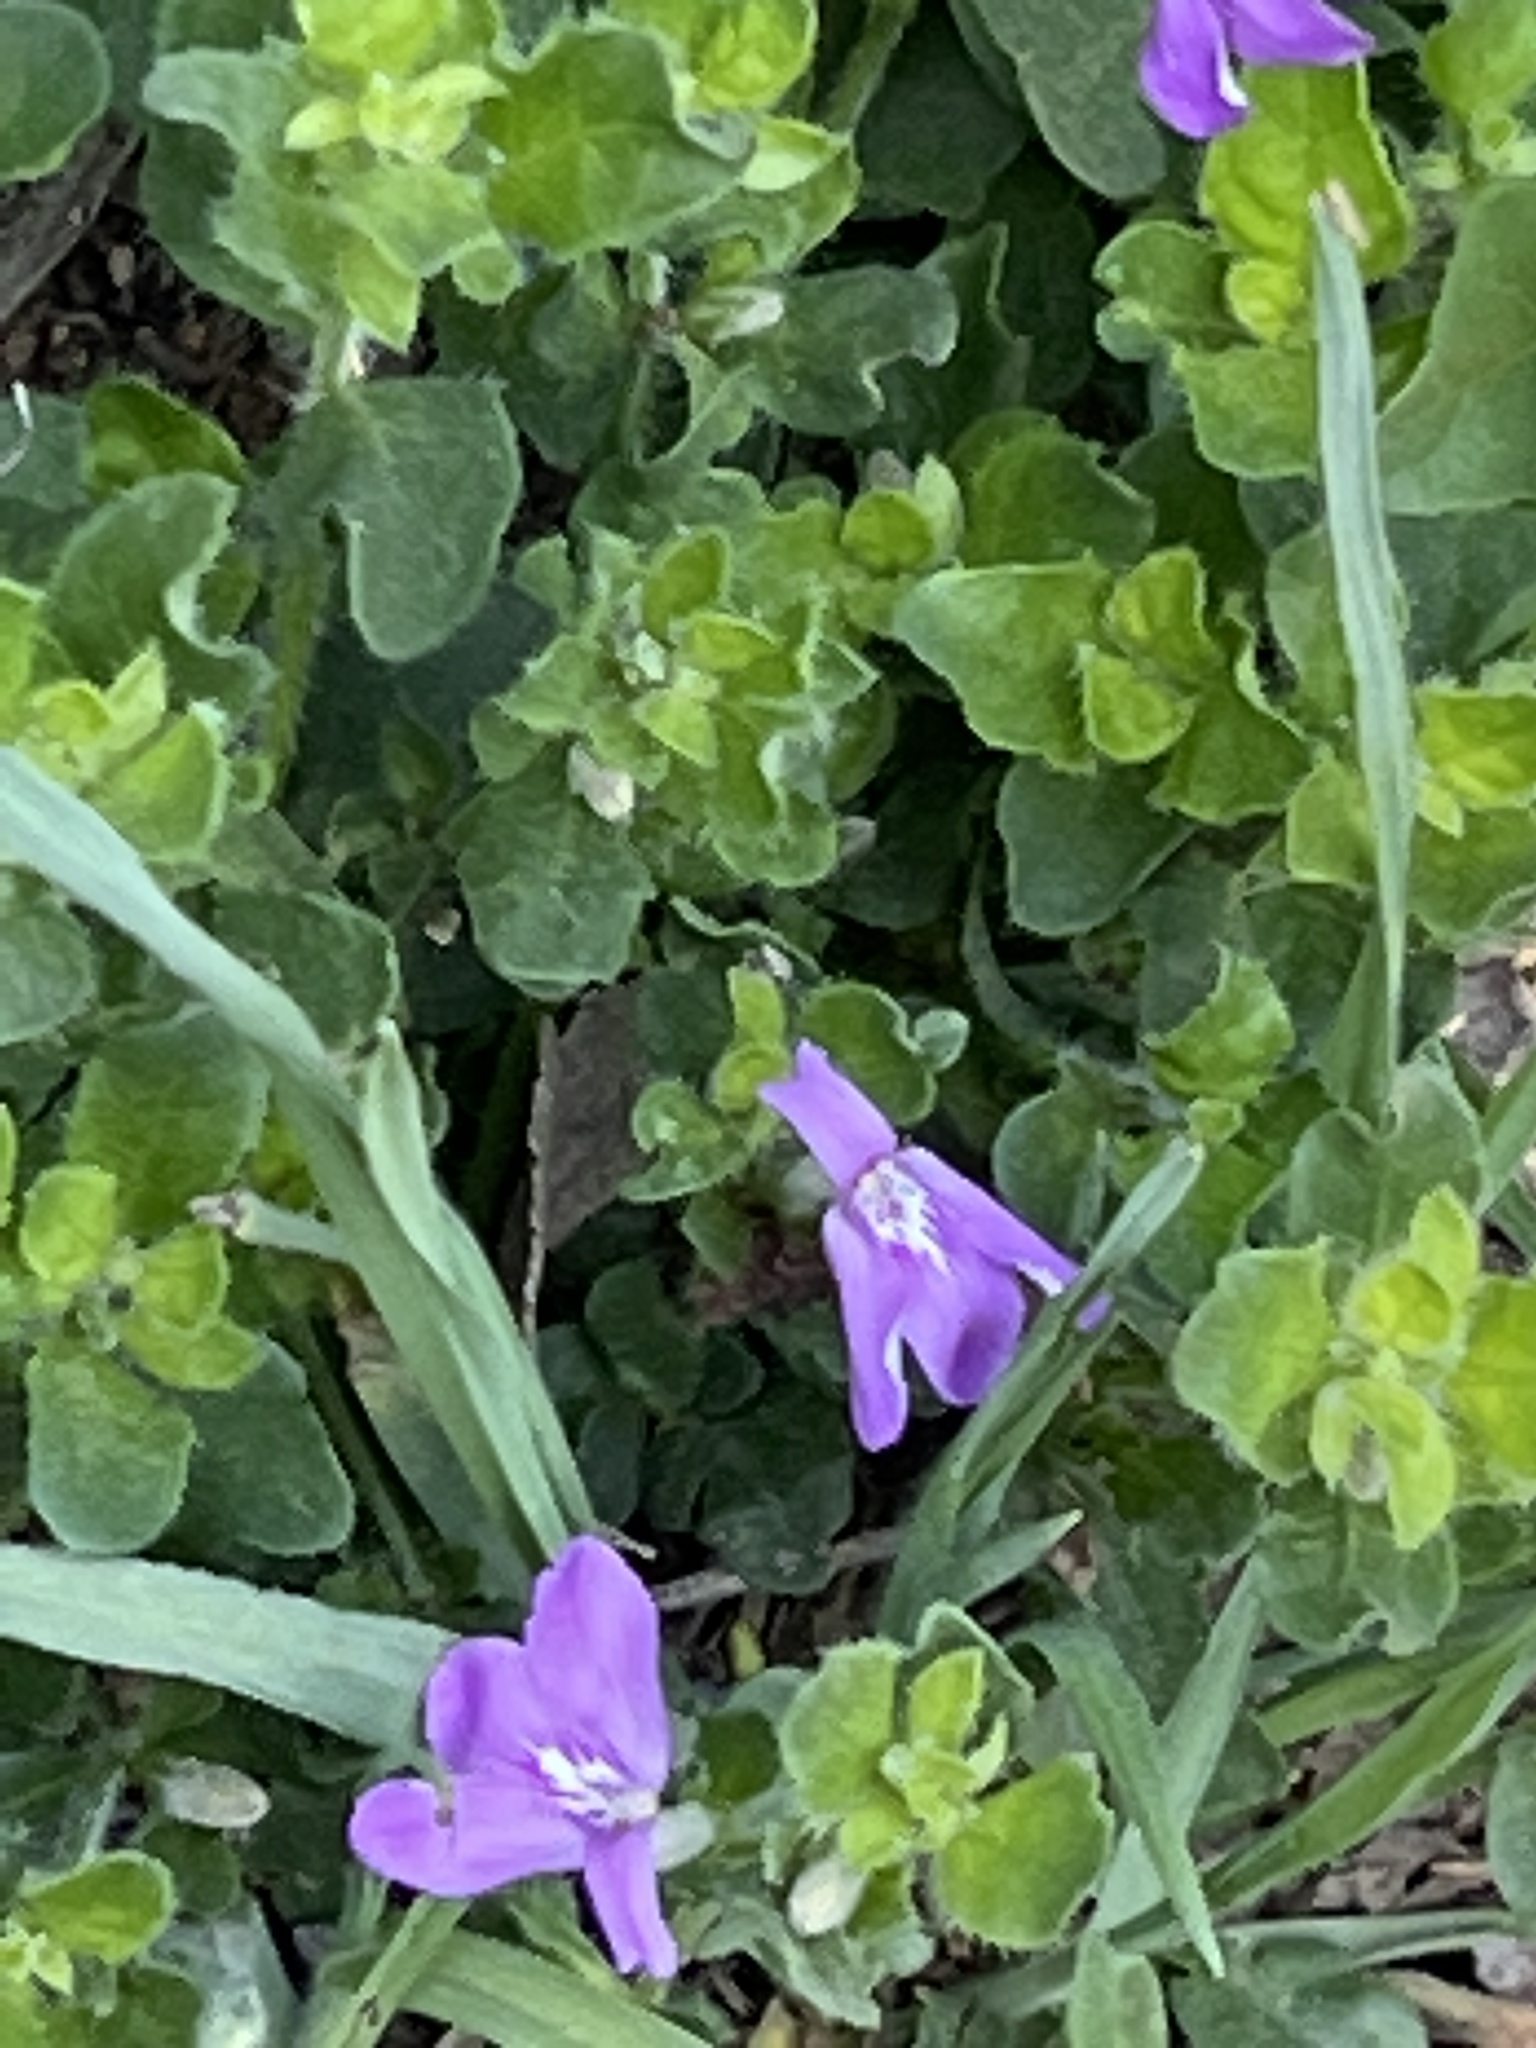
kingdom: Plantae
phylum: Tracheophyta
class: Magnoliopsida
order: Lamiales
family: Acanthaceae
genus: Justicia
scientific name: Justicia pilosella
